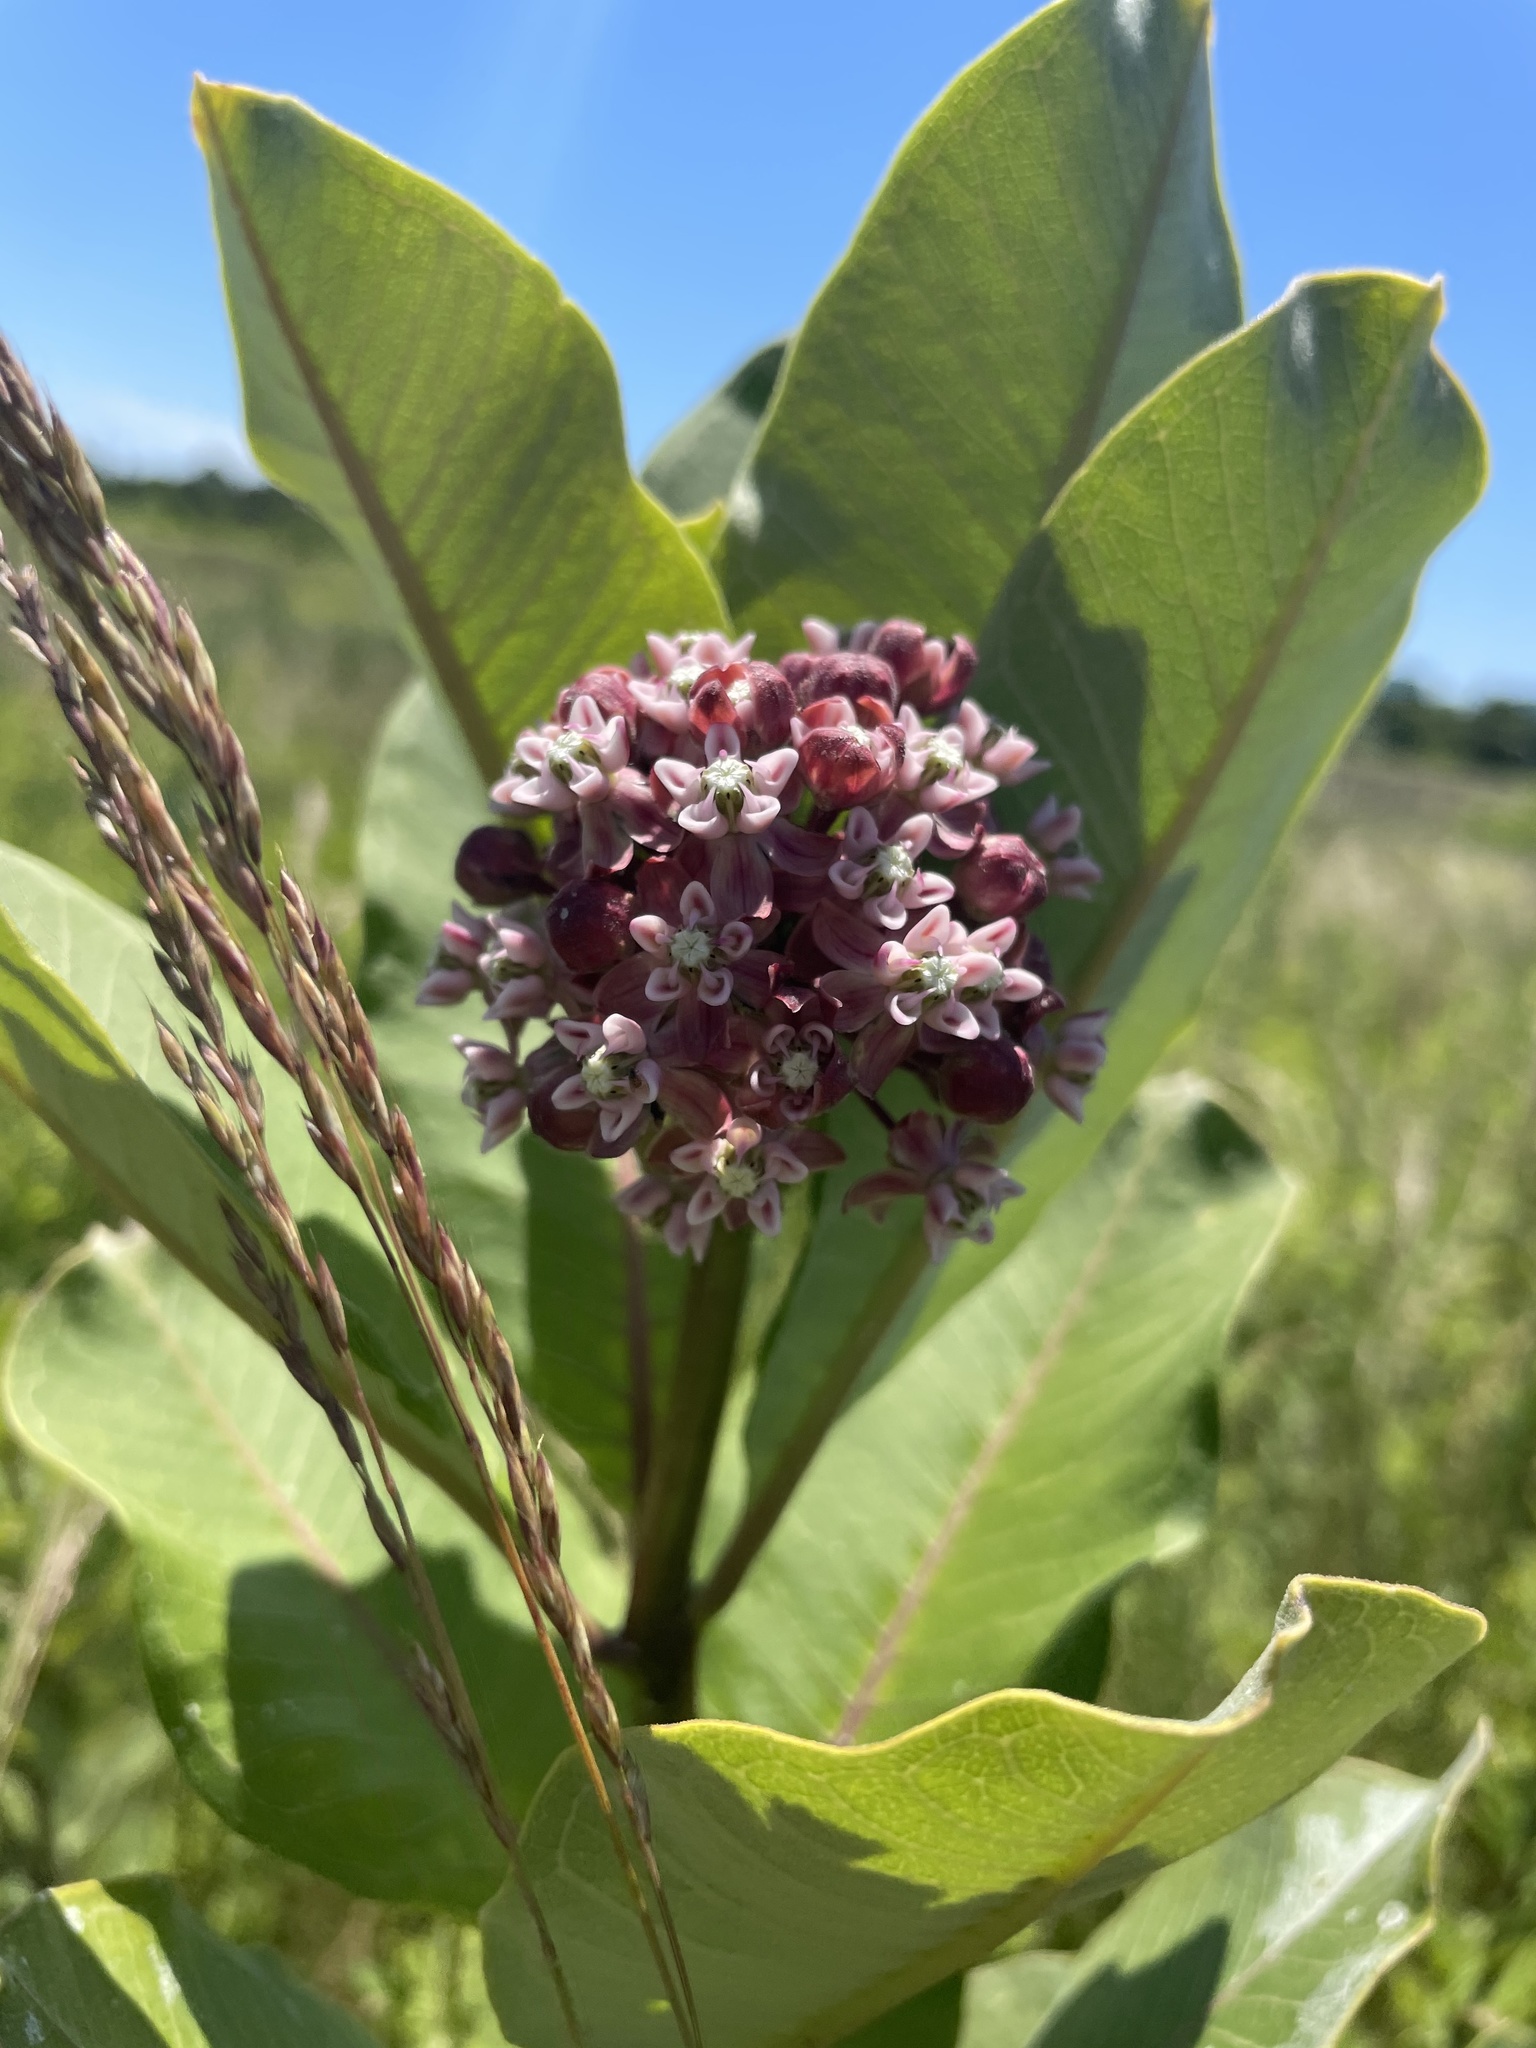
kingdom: Plantae
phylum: Tracheophyta
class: Magnoliopsida
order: Gentianales
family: Apocynaceae
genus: Asclepias
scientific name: Asclepias syriaca
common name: Common milkweed
